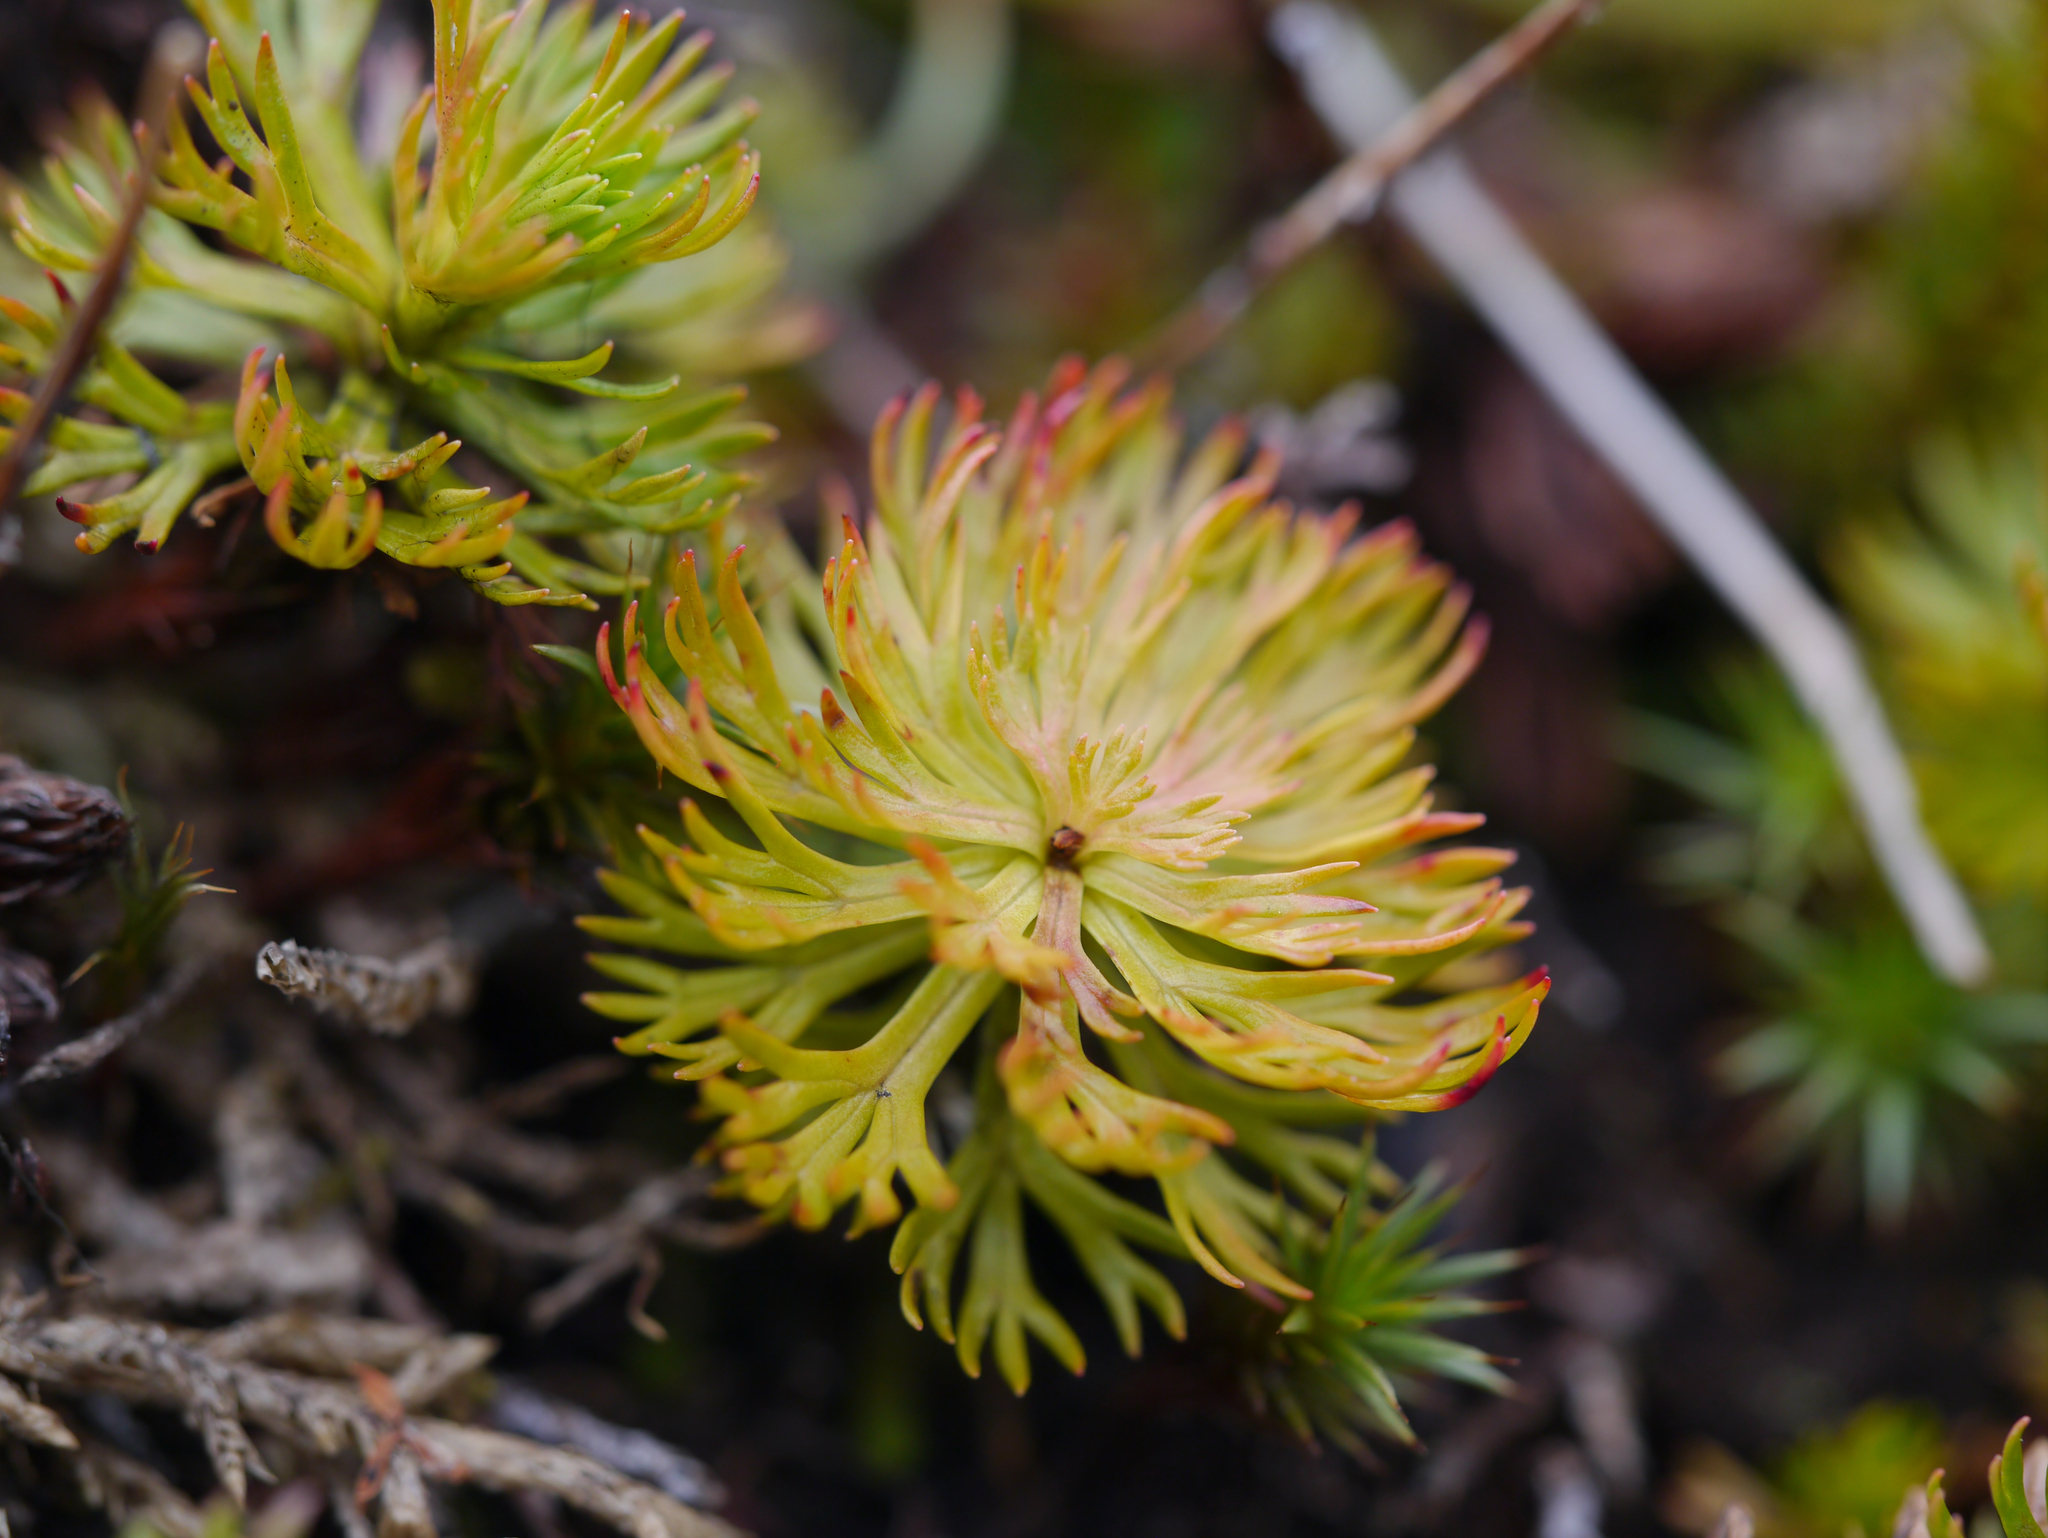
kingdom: Plantae
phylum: Tracheophyta
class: Magnoliopsida
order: Rosales
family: Rosaceae
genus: Luetkea
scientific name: Luetkea pectinata
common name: Partridgefoot
